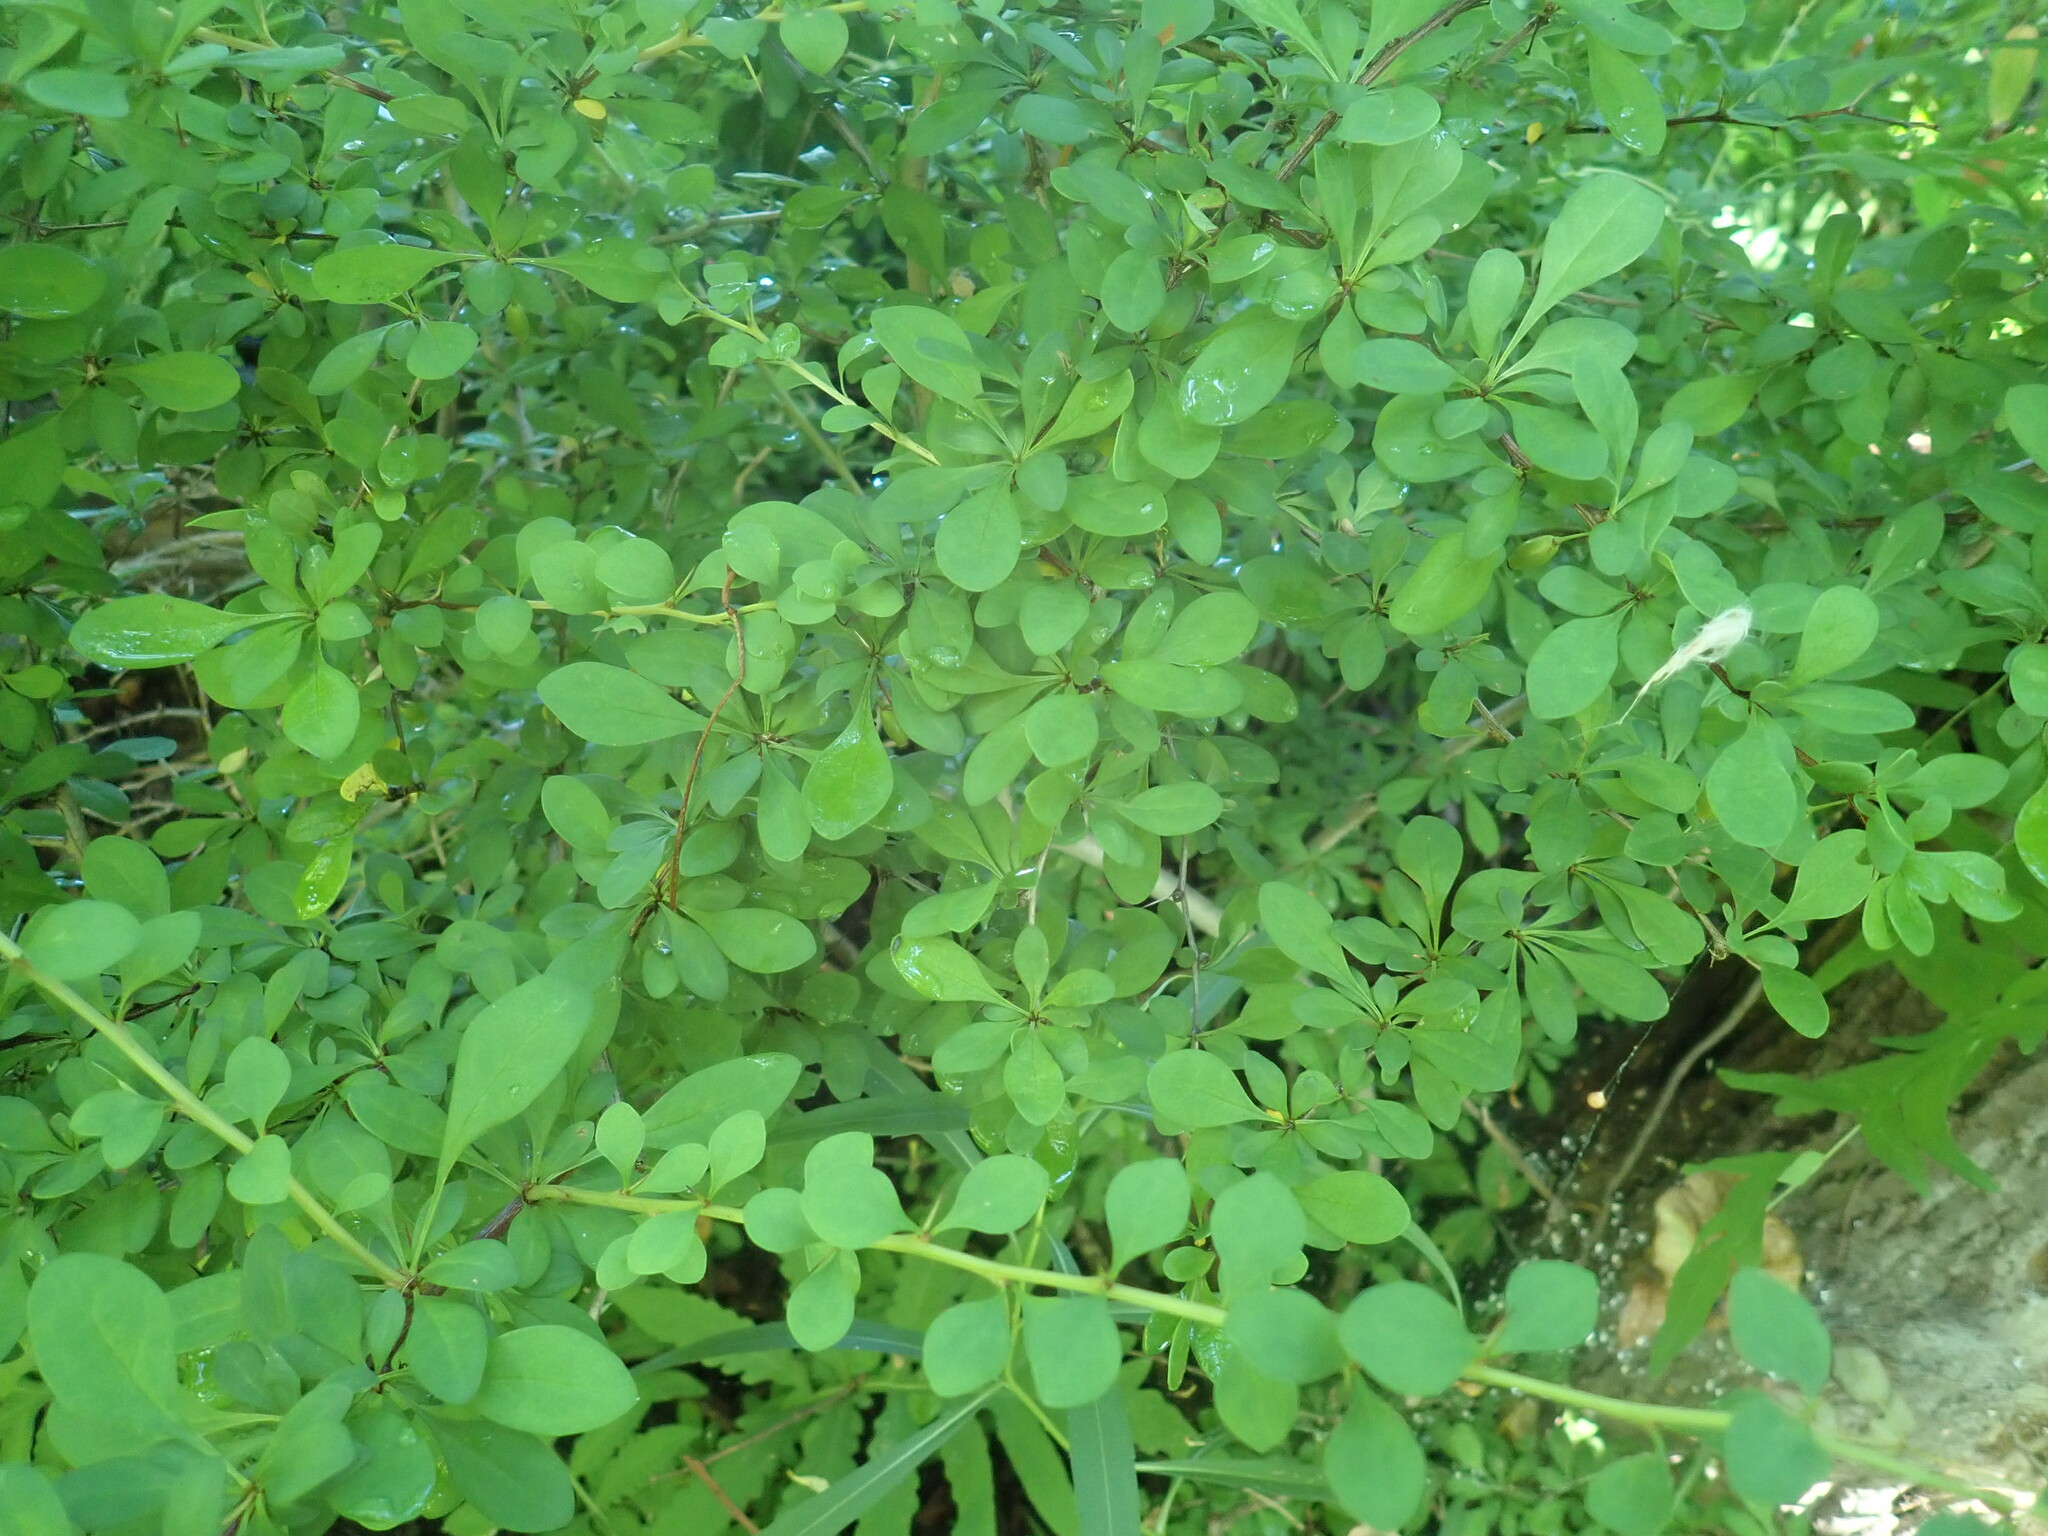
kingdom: Plantae
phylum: Tracheophyta
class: Magnoliopsida
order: Ranunculales
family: Berberidaceae
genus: Berberis
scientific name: Berberis thunbergii
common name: Japanese barberry
